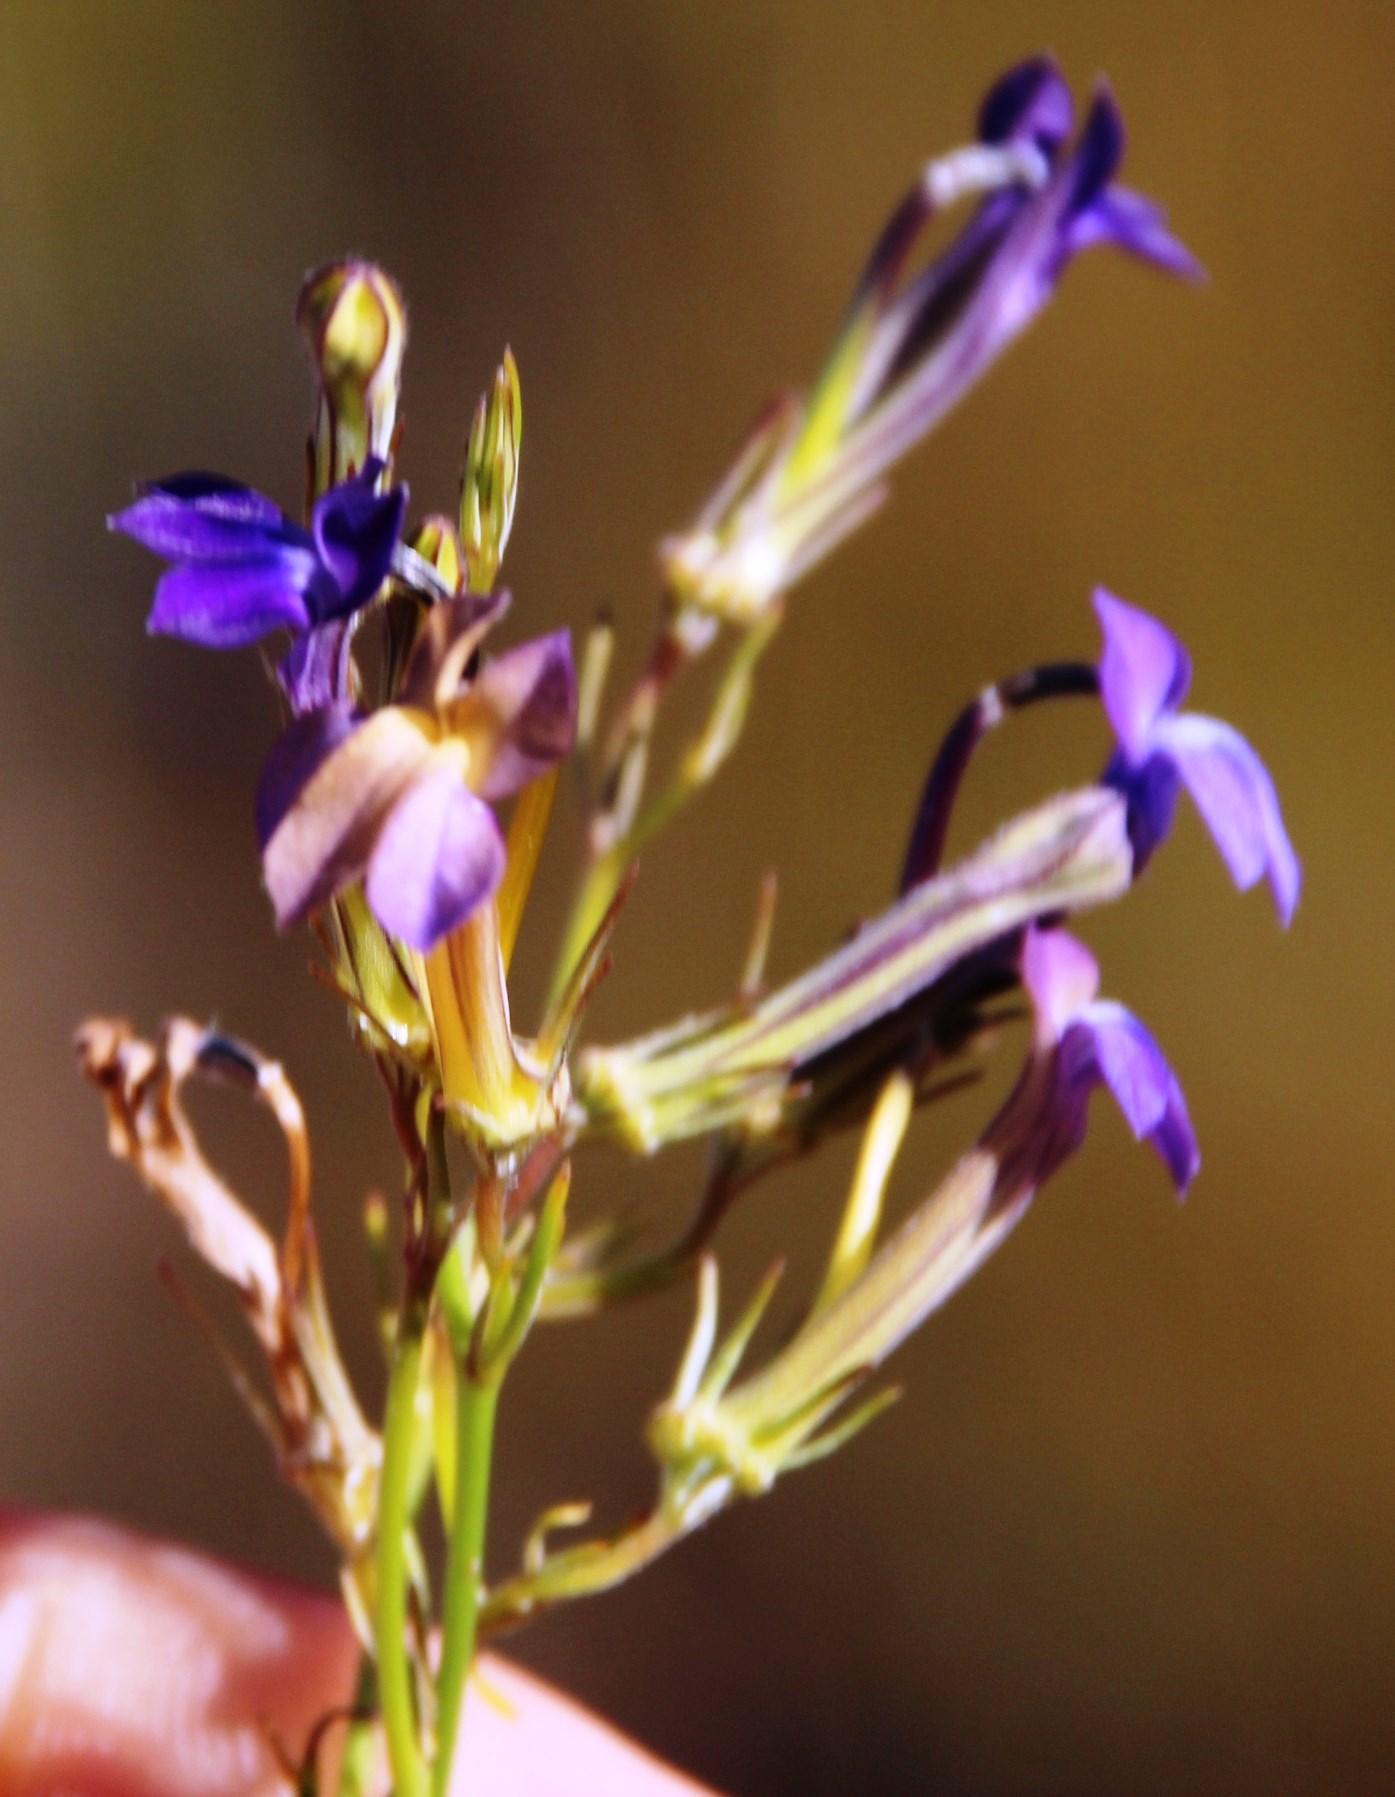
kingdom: Plantae
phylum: Tracheophyta
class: Magnoliopsida
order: Asterales
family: Campanulaceae
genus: Lobelia
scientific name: Lobelia linearis
